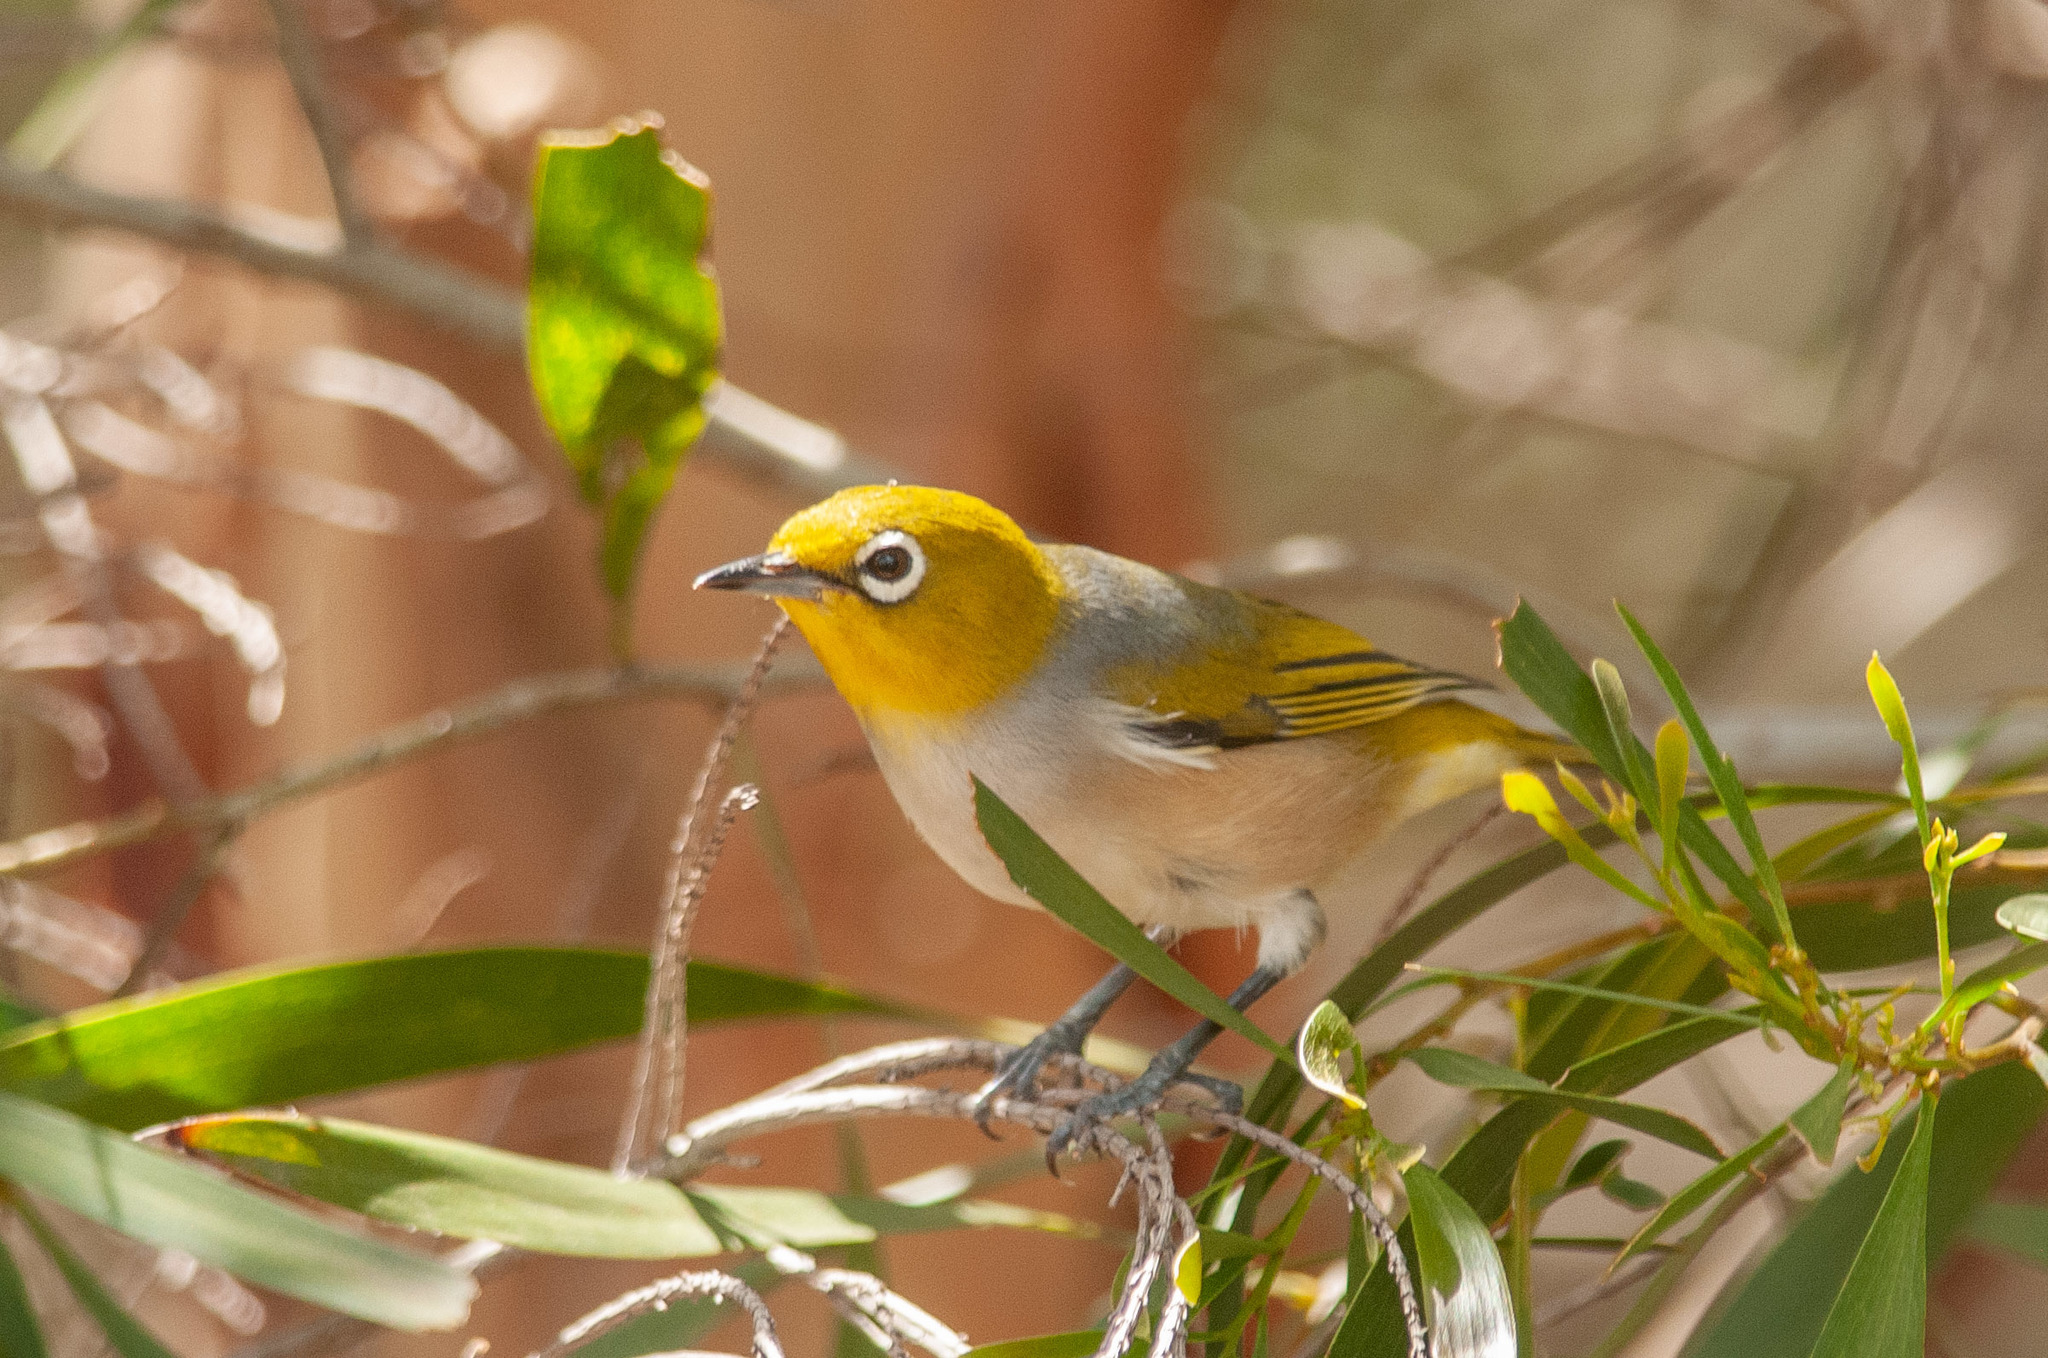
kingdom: Animalia
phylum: Chordata
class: Aves
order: Passeriformes
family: Zosteropidae
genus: Zosterops
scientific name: Zosterops lateralis
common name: Silvereye
